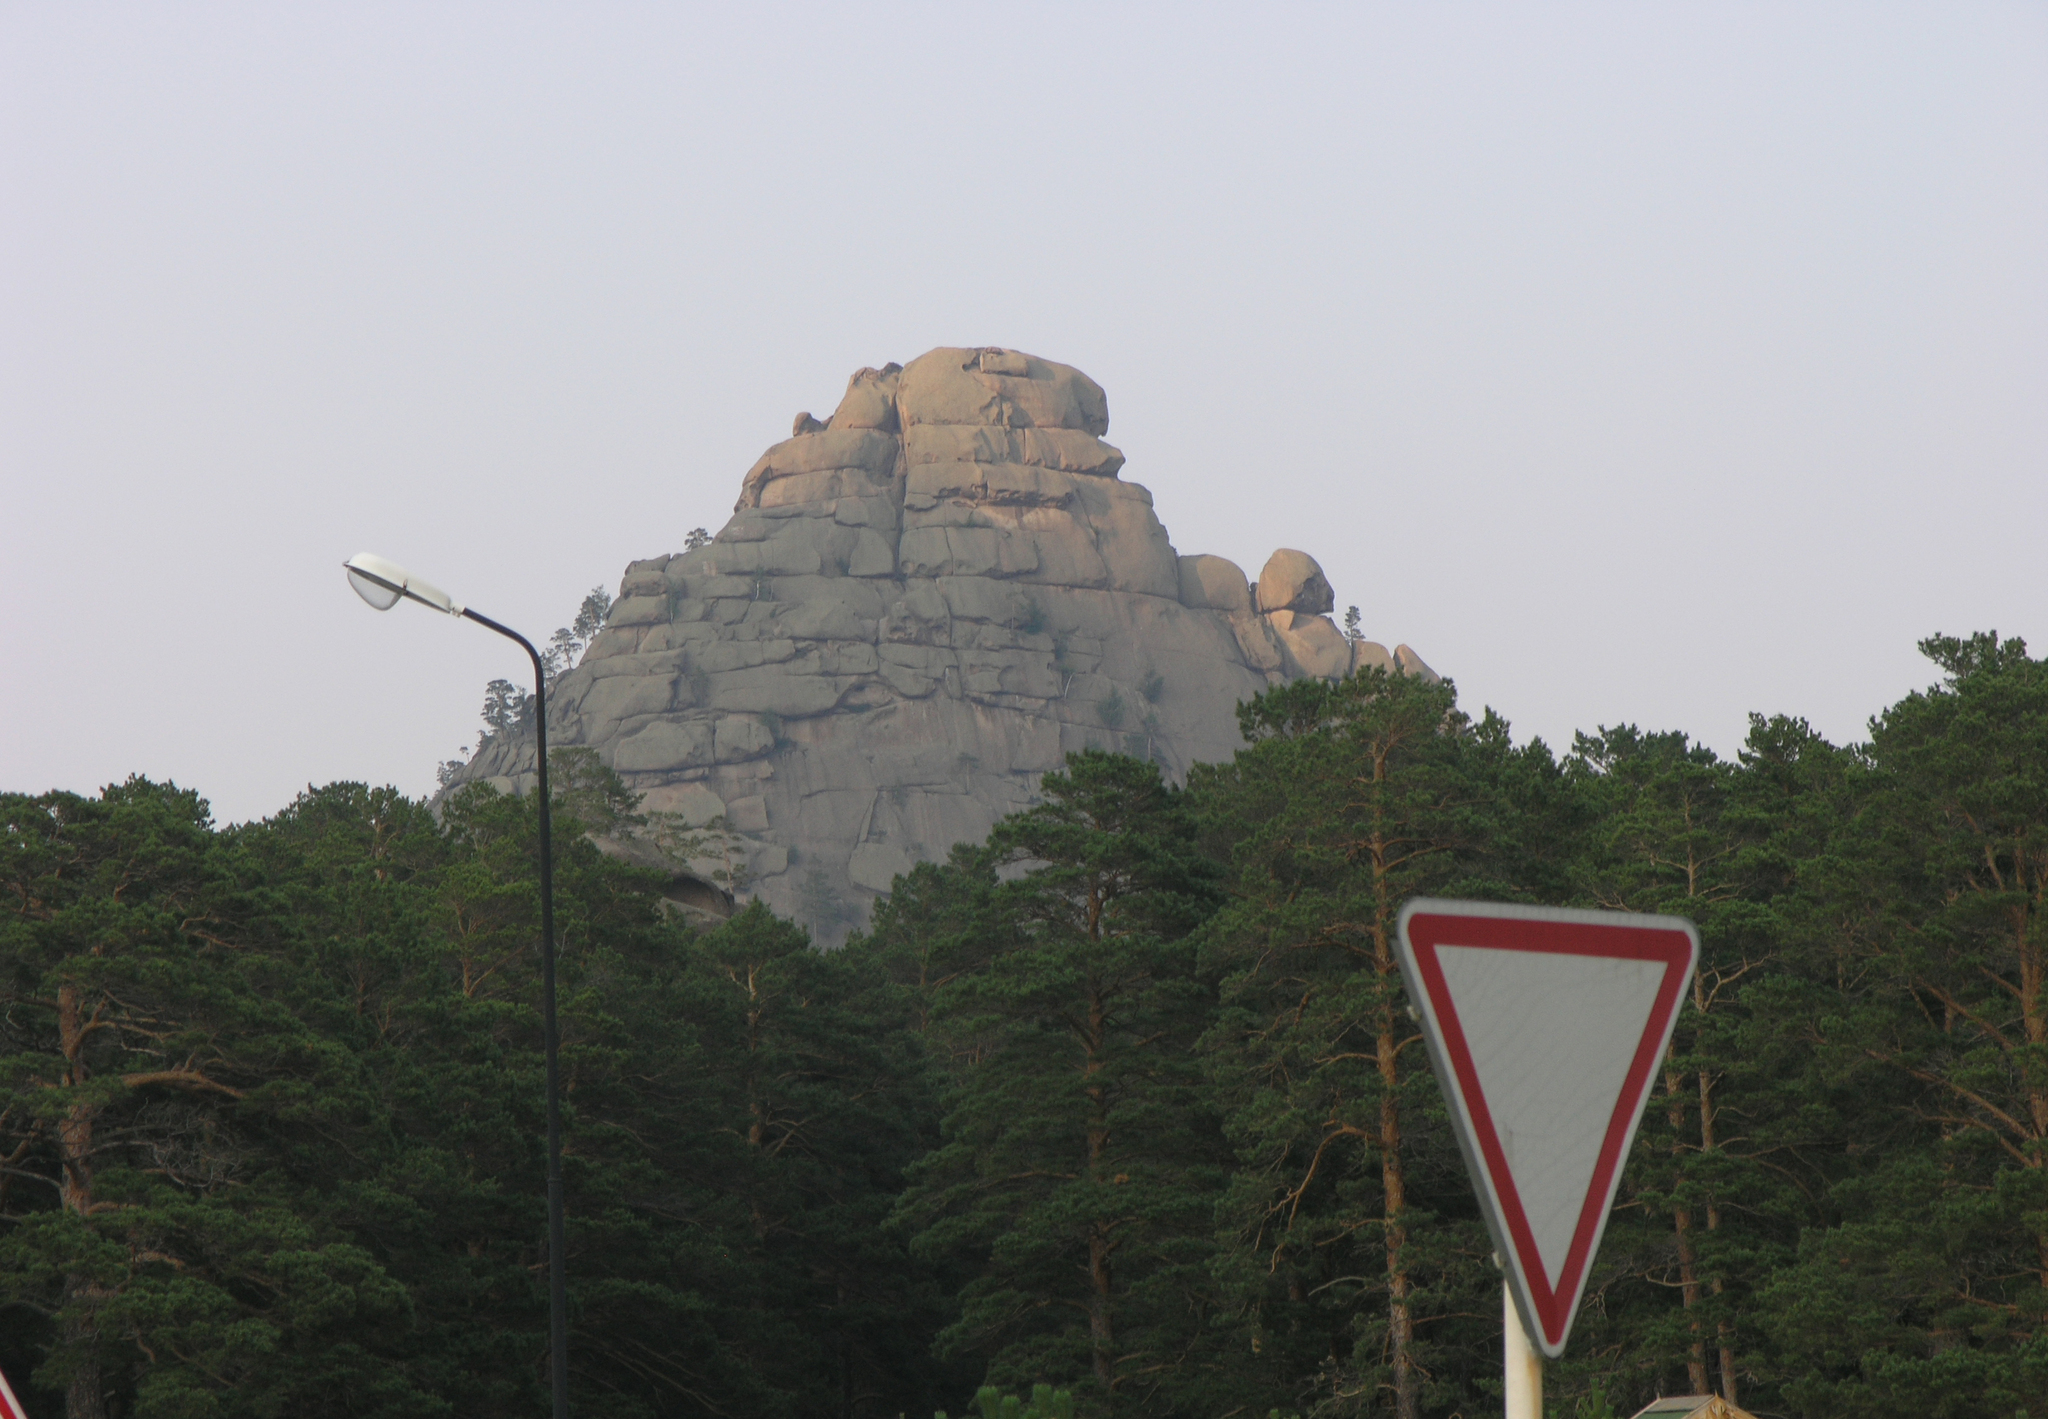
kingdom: Plantae
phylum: Tracheophyta
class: Pinopsida
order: Pinales
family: Pinaceae
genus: Pinus
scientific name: Pinus sylvestris
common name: Scots pine
